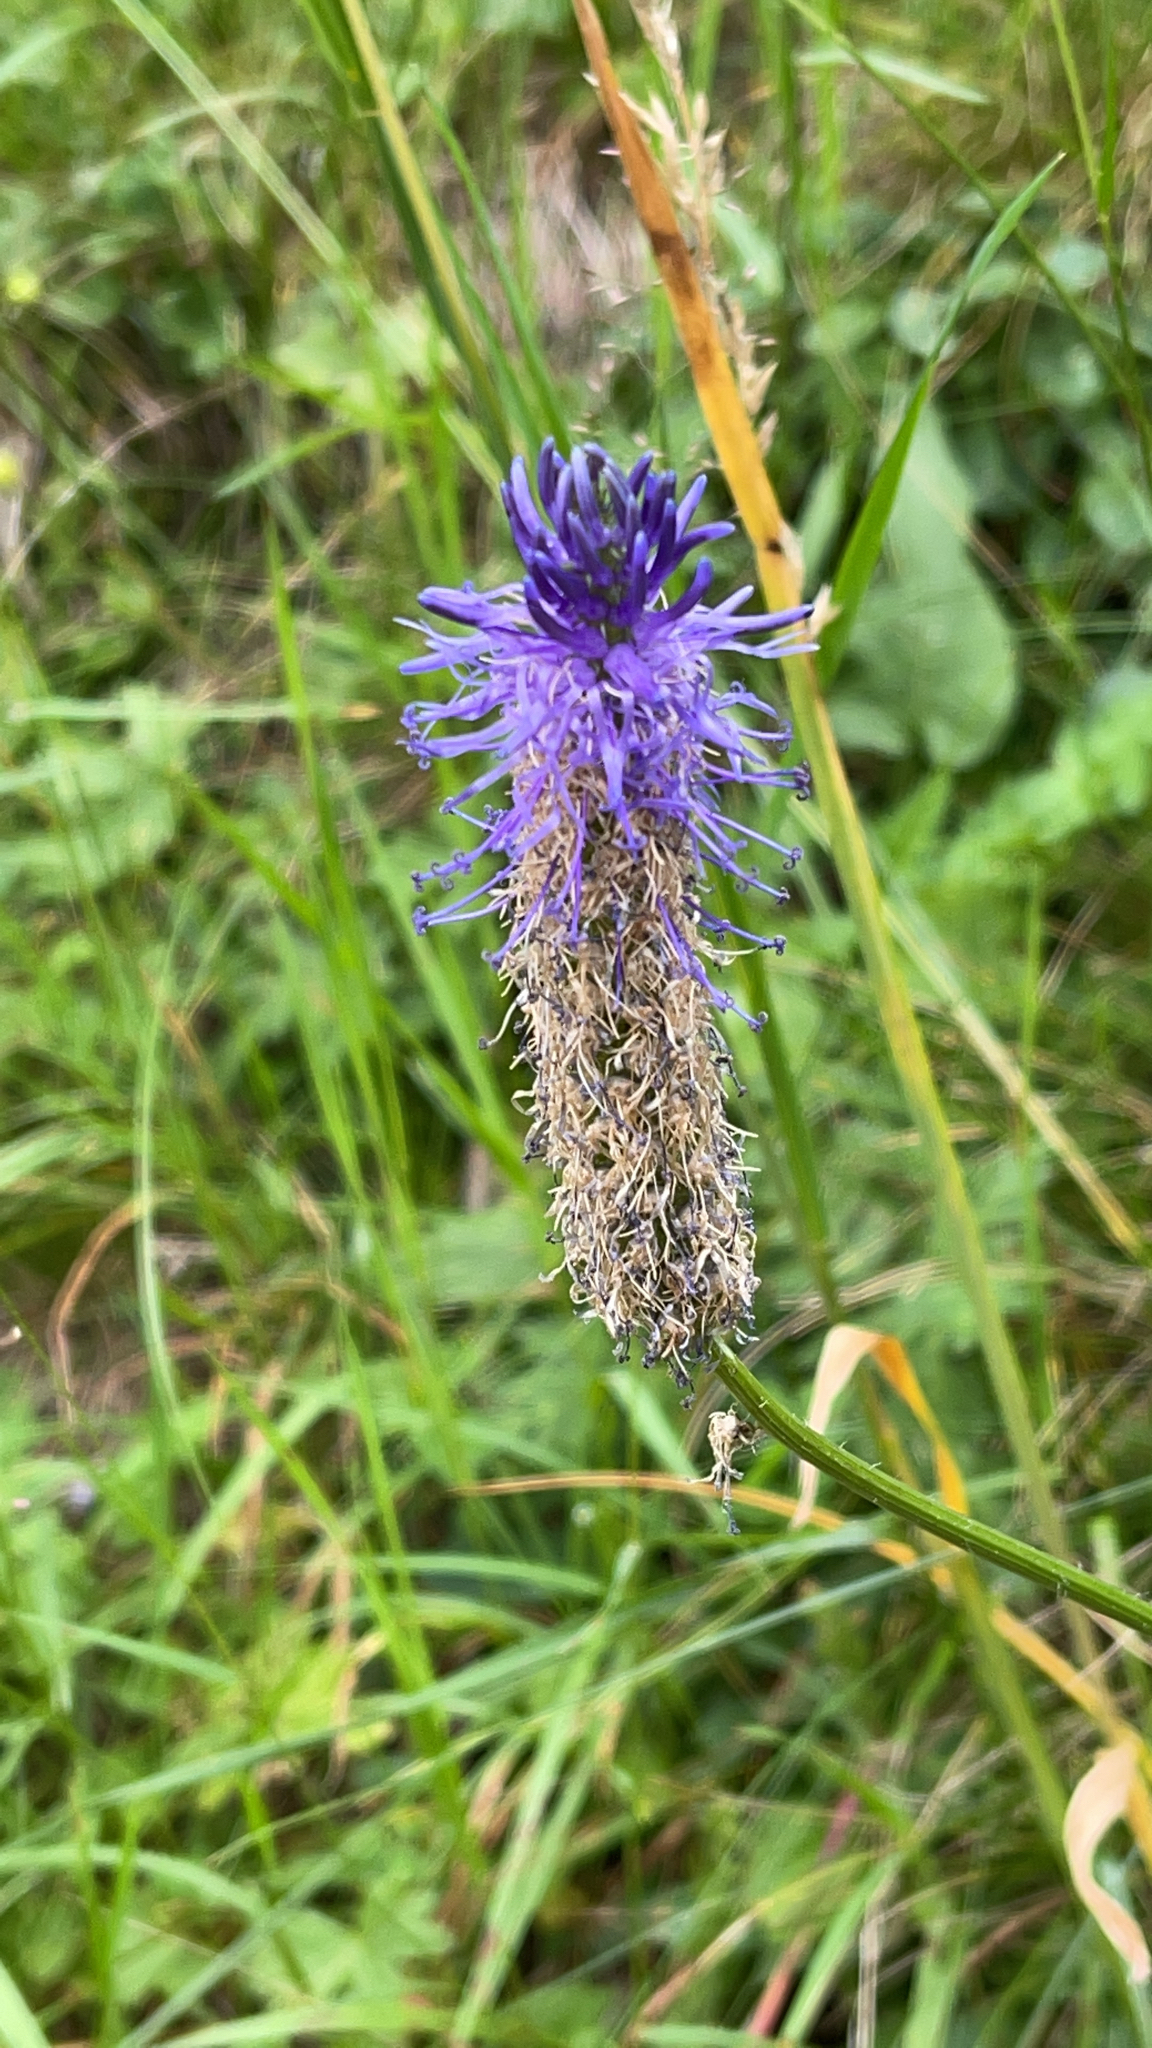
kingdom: Plantae
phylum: Tracheophyta
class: Magnoliopsida
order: Asterales
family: Campanulaceae
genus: Phyteuma
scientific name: Phyteuma betonicifolium
